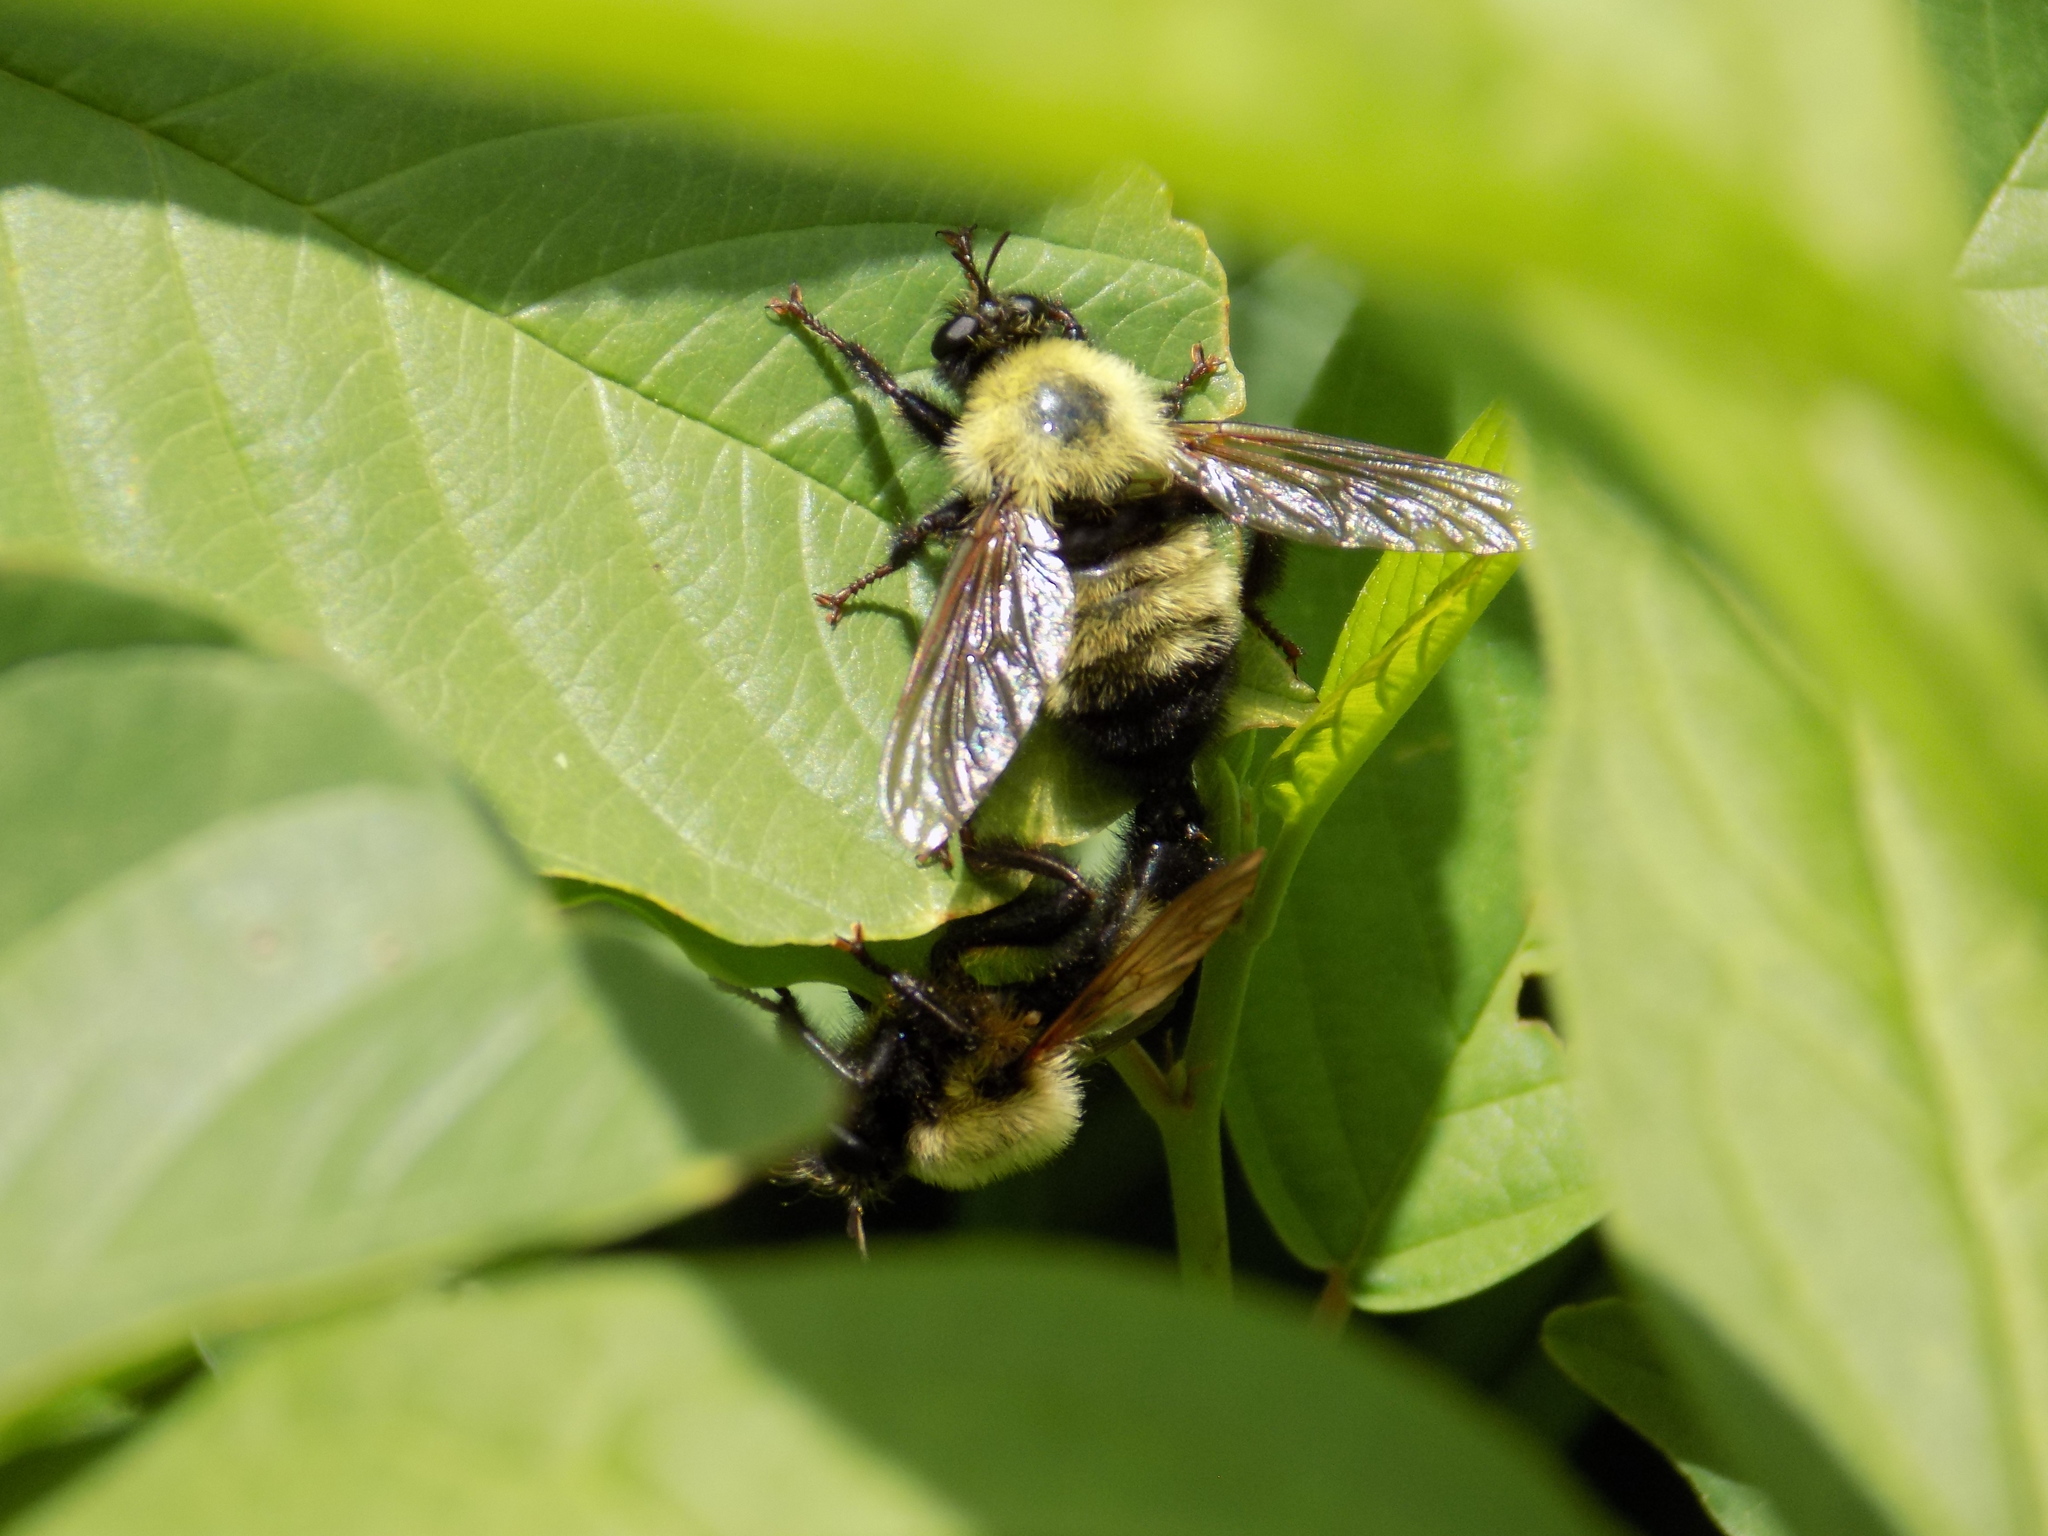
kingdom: Animalia
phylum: Arthropoda
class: Insecta
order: Diptera
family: Asilidae
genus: Laphria
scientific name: Laphria thoracica
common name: Bumble bee mimic robber fly
